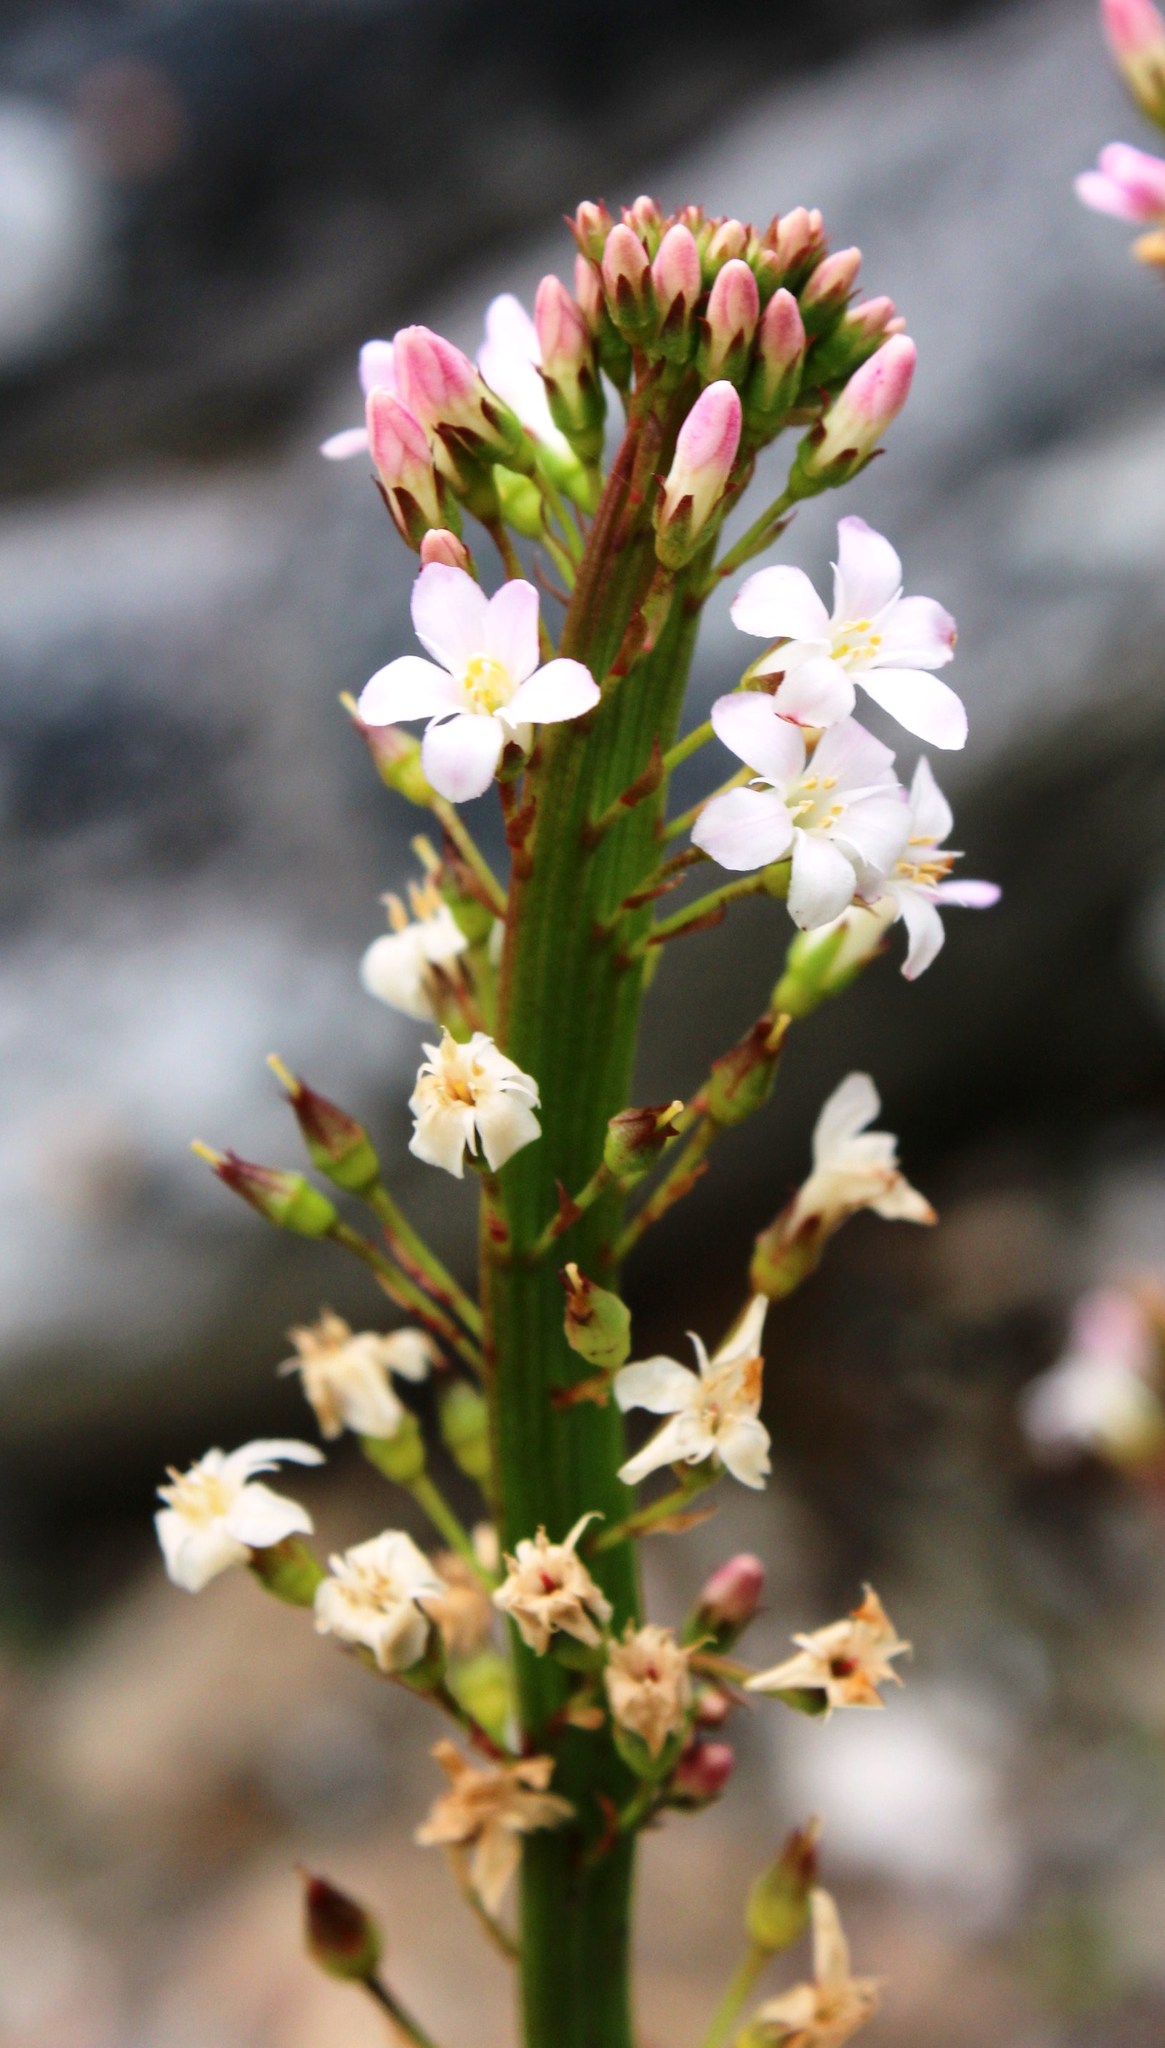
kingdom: Plantae
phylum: Tracheophyta
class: Magnoliopsida
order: Ericales
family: Primulaceae
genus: Samolus
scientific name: Samolus porosus
